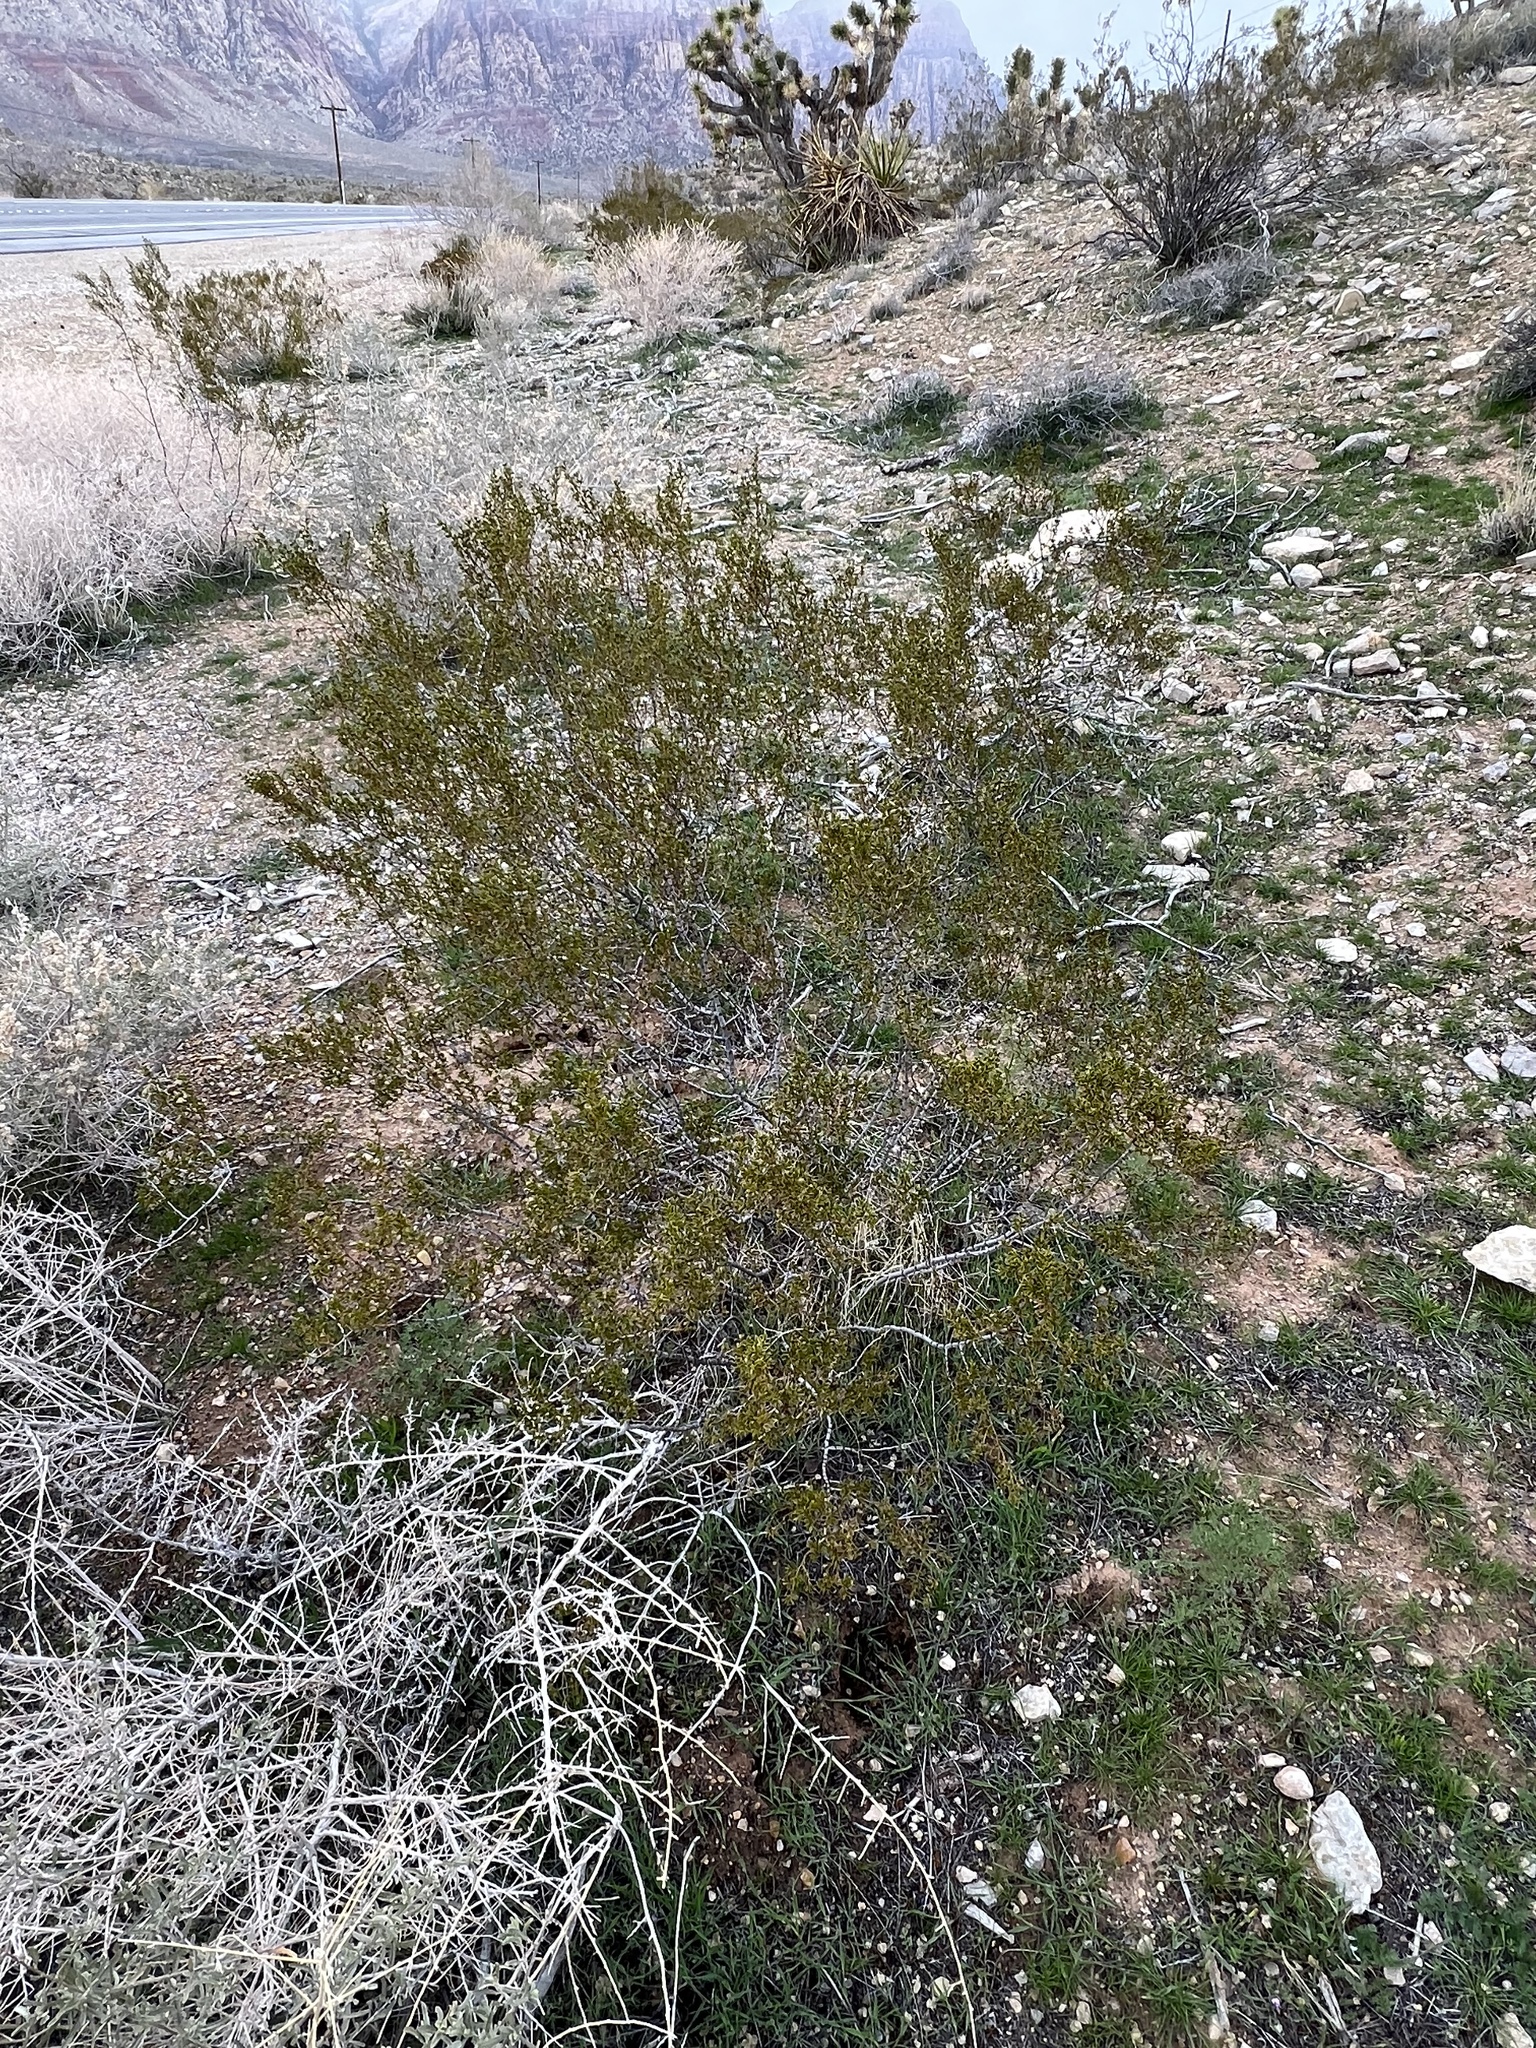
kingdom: Plantae
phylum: Tracheophyta
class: Magnoliopsida
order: Zygophyllales
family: Zygophyllaceae
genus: Larrea
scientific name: Larrea tridentata
